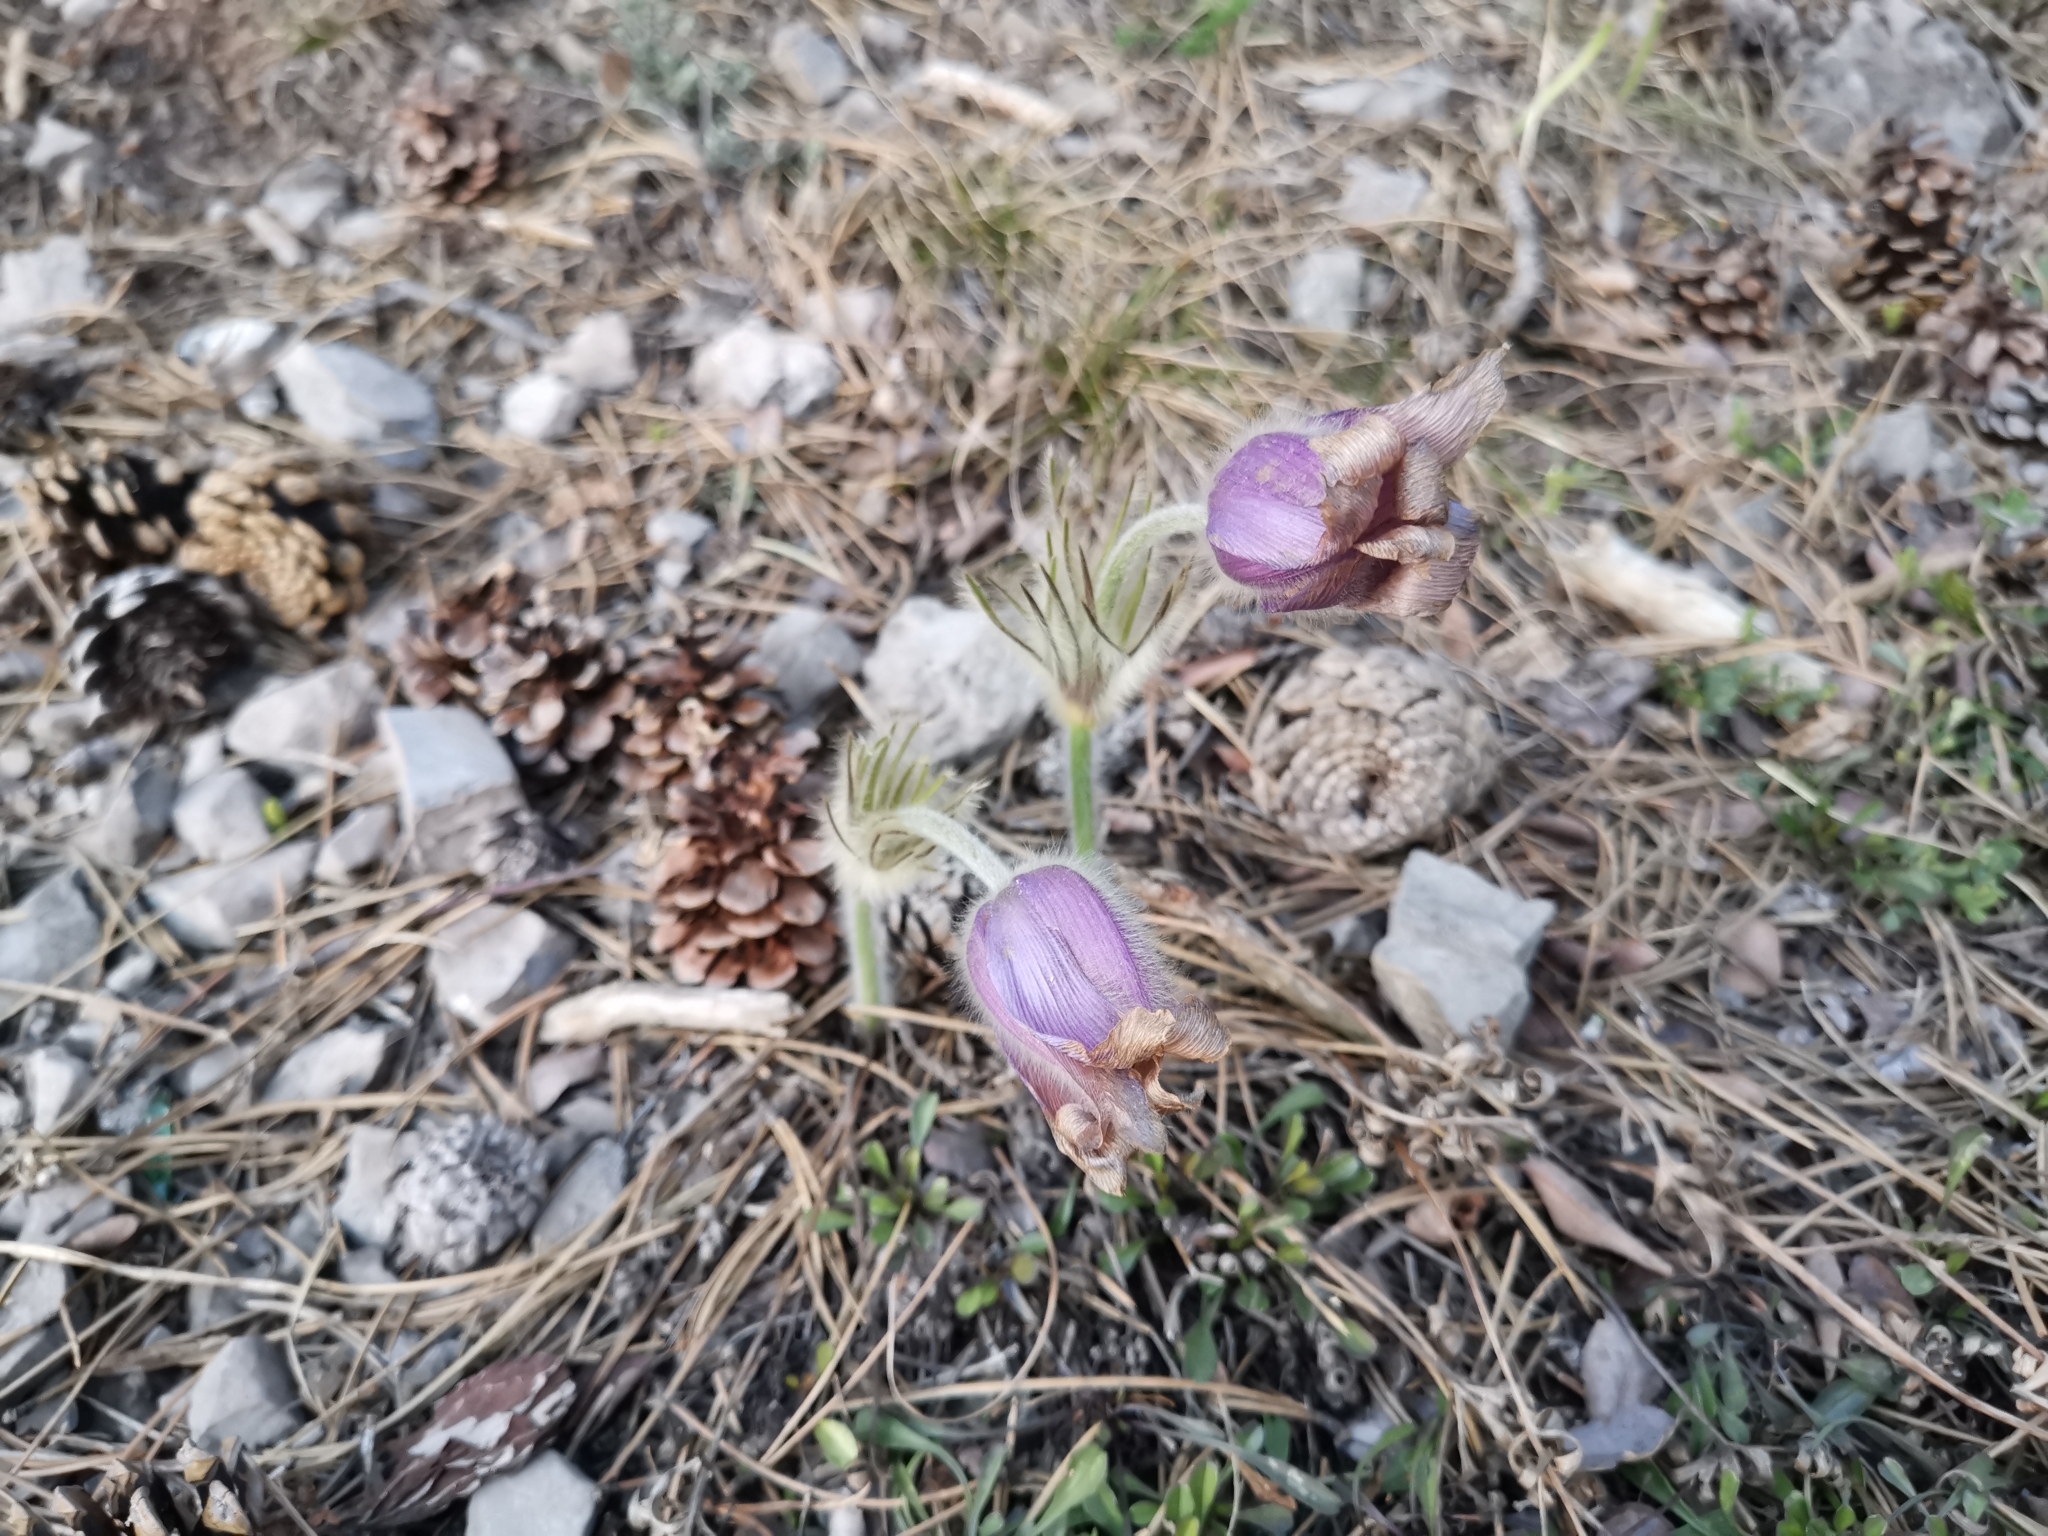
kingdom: Plantae
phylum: Tracheophyta
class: Magnoliopsida
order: Ranunculales
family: Ranunculaceae
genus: Pulsatilla
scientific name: Pulsatilla grandis
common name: Greater pasque flower
